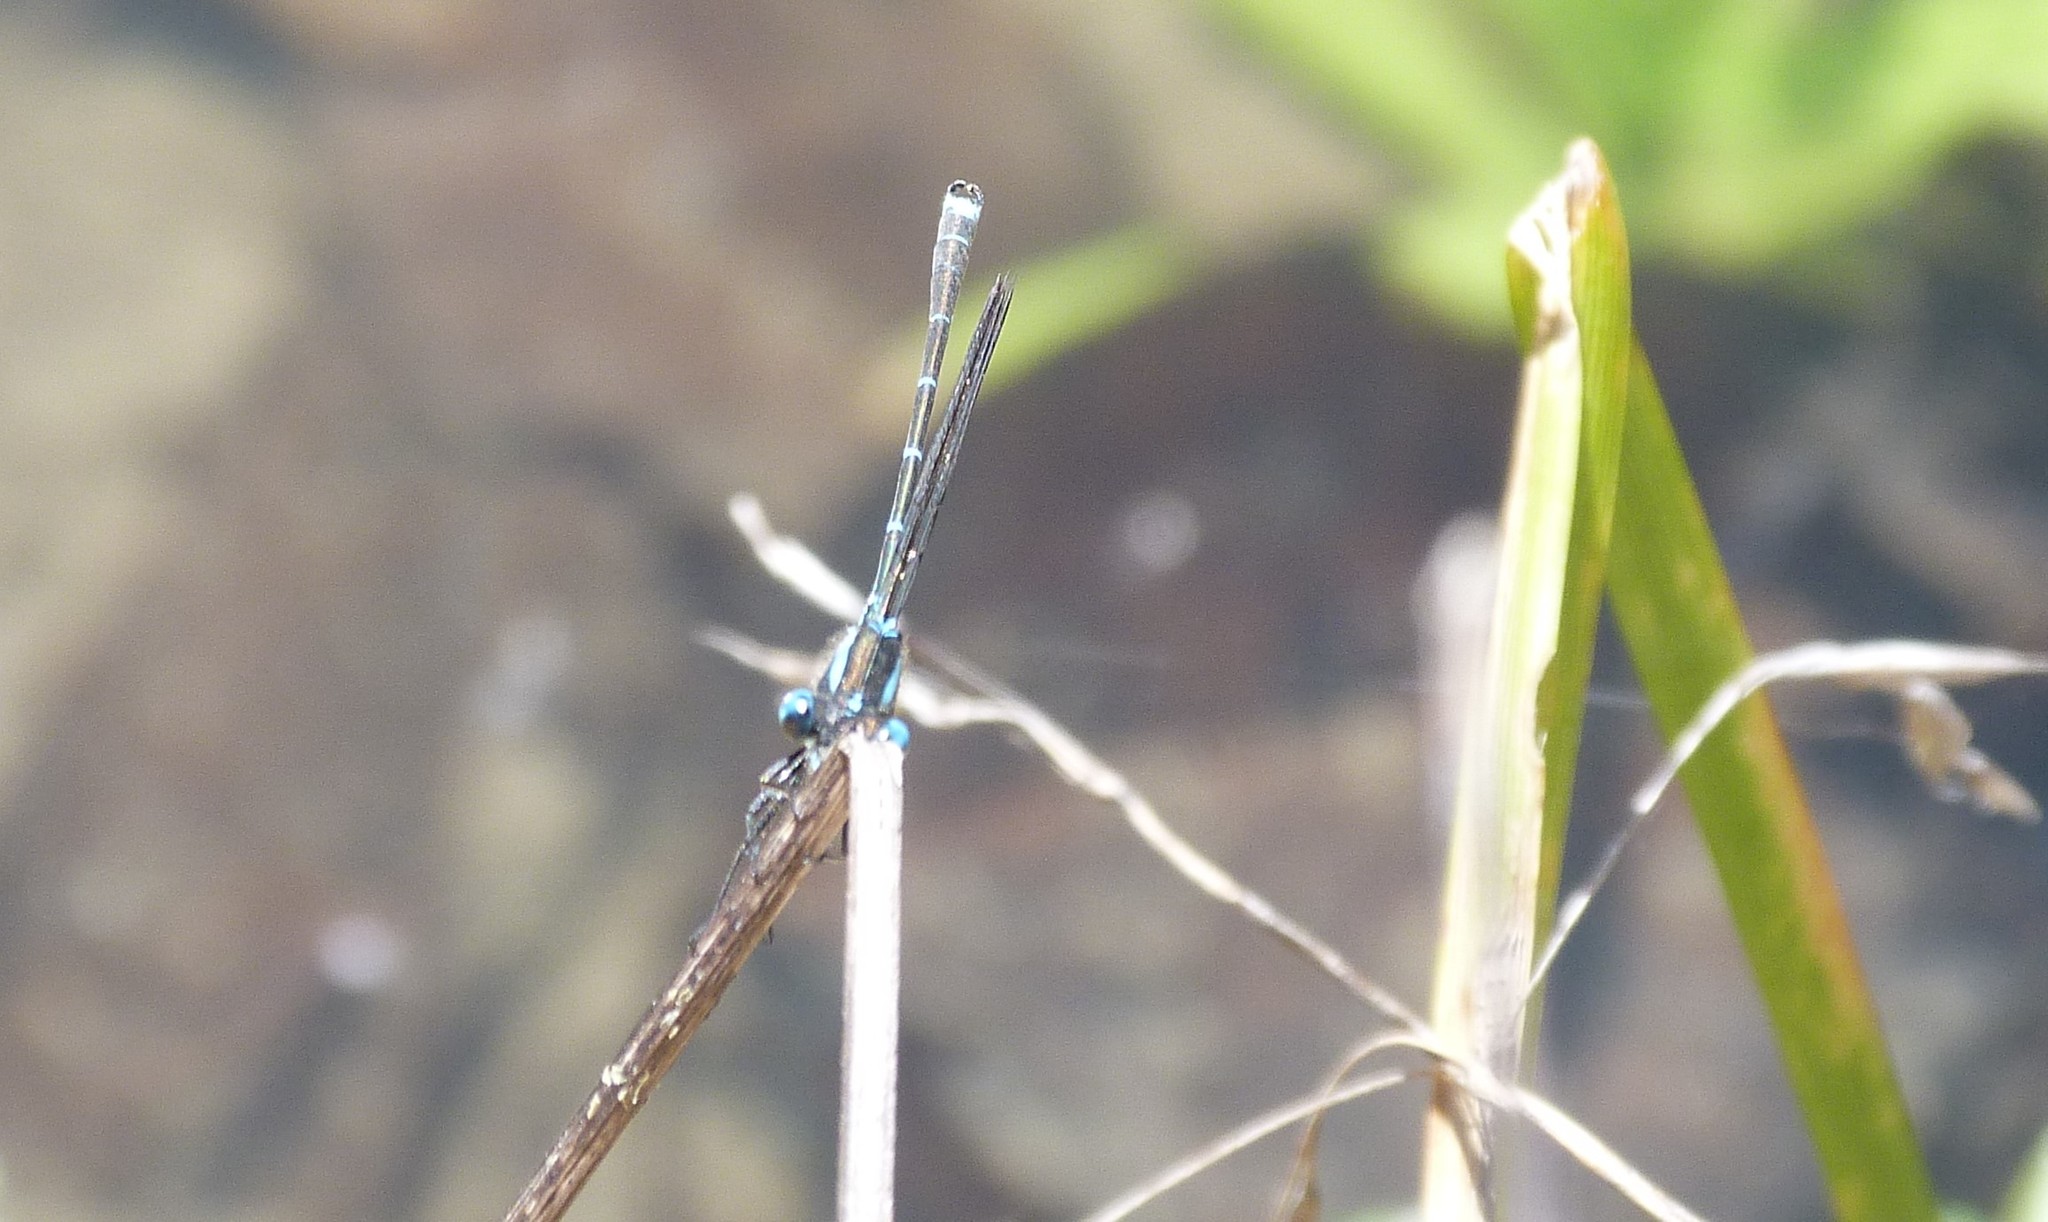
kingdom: Animalia
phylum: Arthropoda
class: Insecta
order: Odonata
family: Lestidae
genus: Austrolestes
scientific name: Austrolestes colensonis
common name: Blue damselfly
